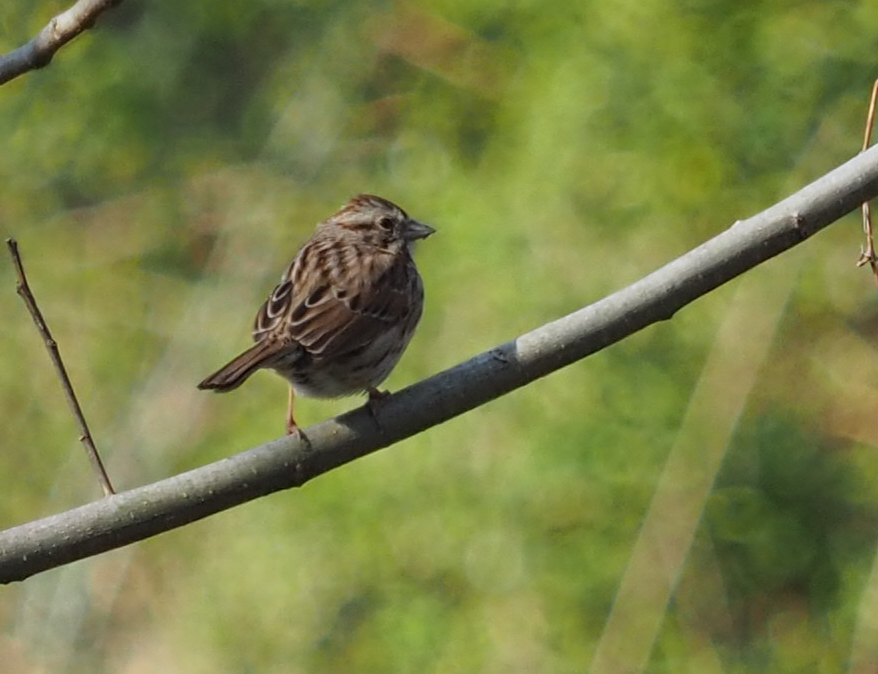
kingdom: Animalia
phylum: Chordata
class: Aves
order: Passeriformes
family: Passerellidae
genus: Melospiza
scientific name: Melospiza melodia
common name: Song sparrow
